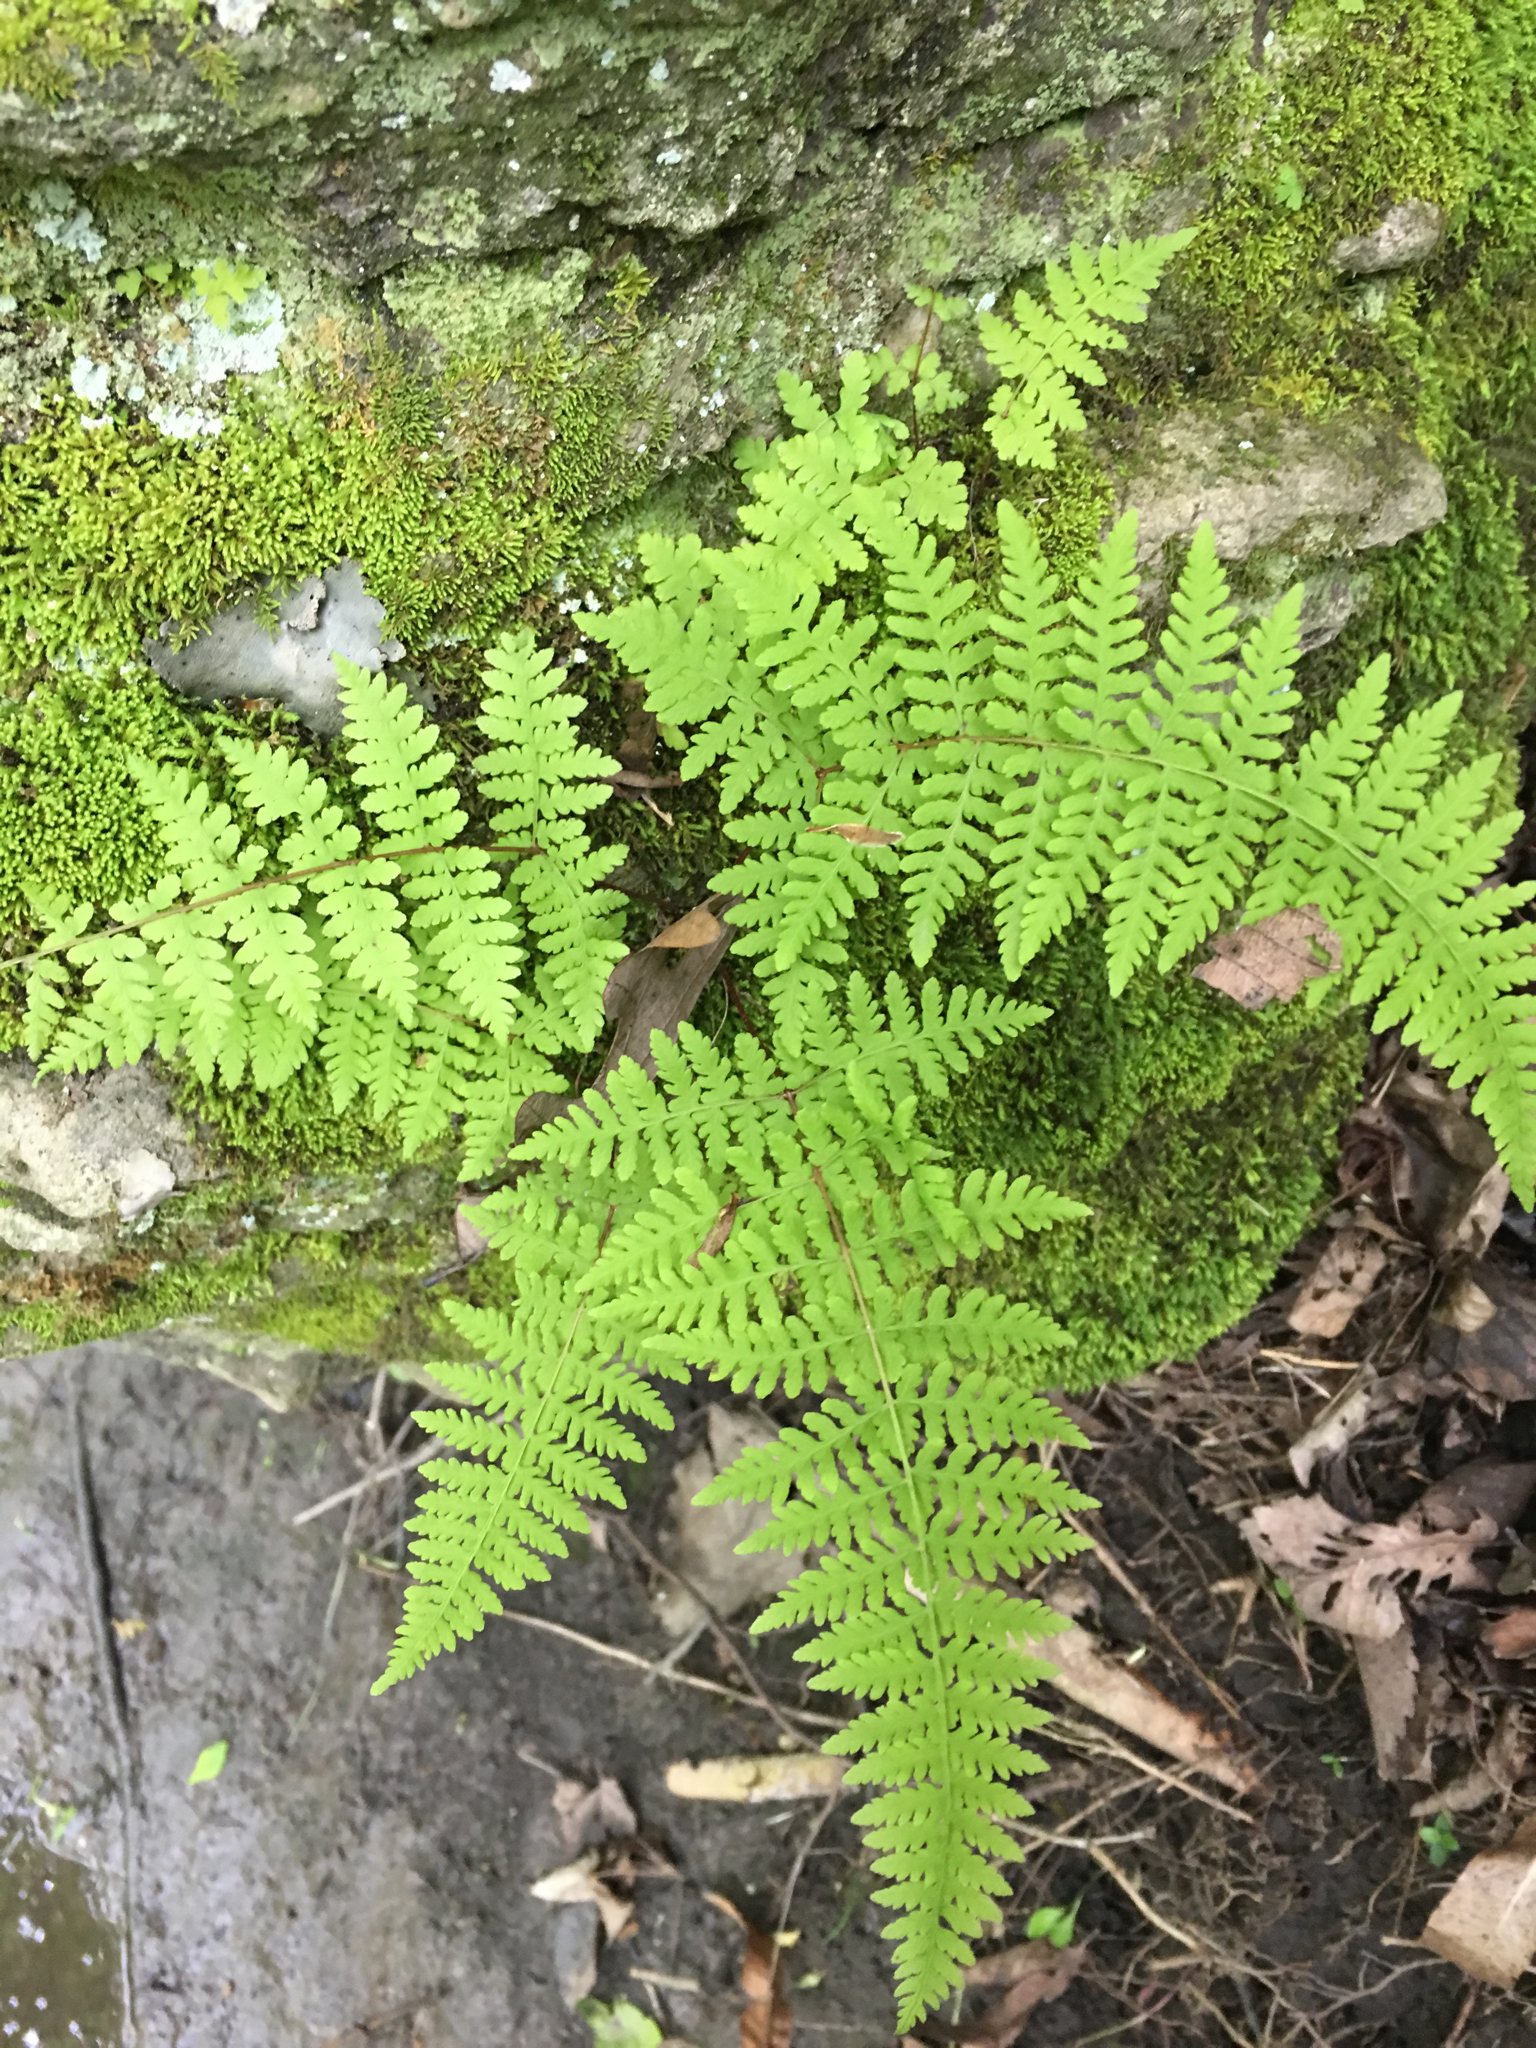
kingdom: Plantae
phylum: Tracheophyta
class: Polypodiopsida
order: Polypodiales
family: Cystopteridaceae
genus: Cystopteris
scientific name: Cystopteris bulbifera
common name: Bulblet bladder fern
